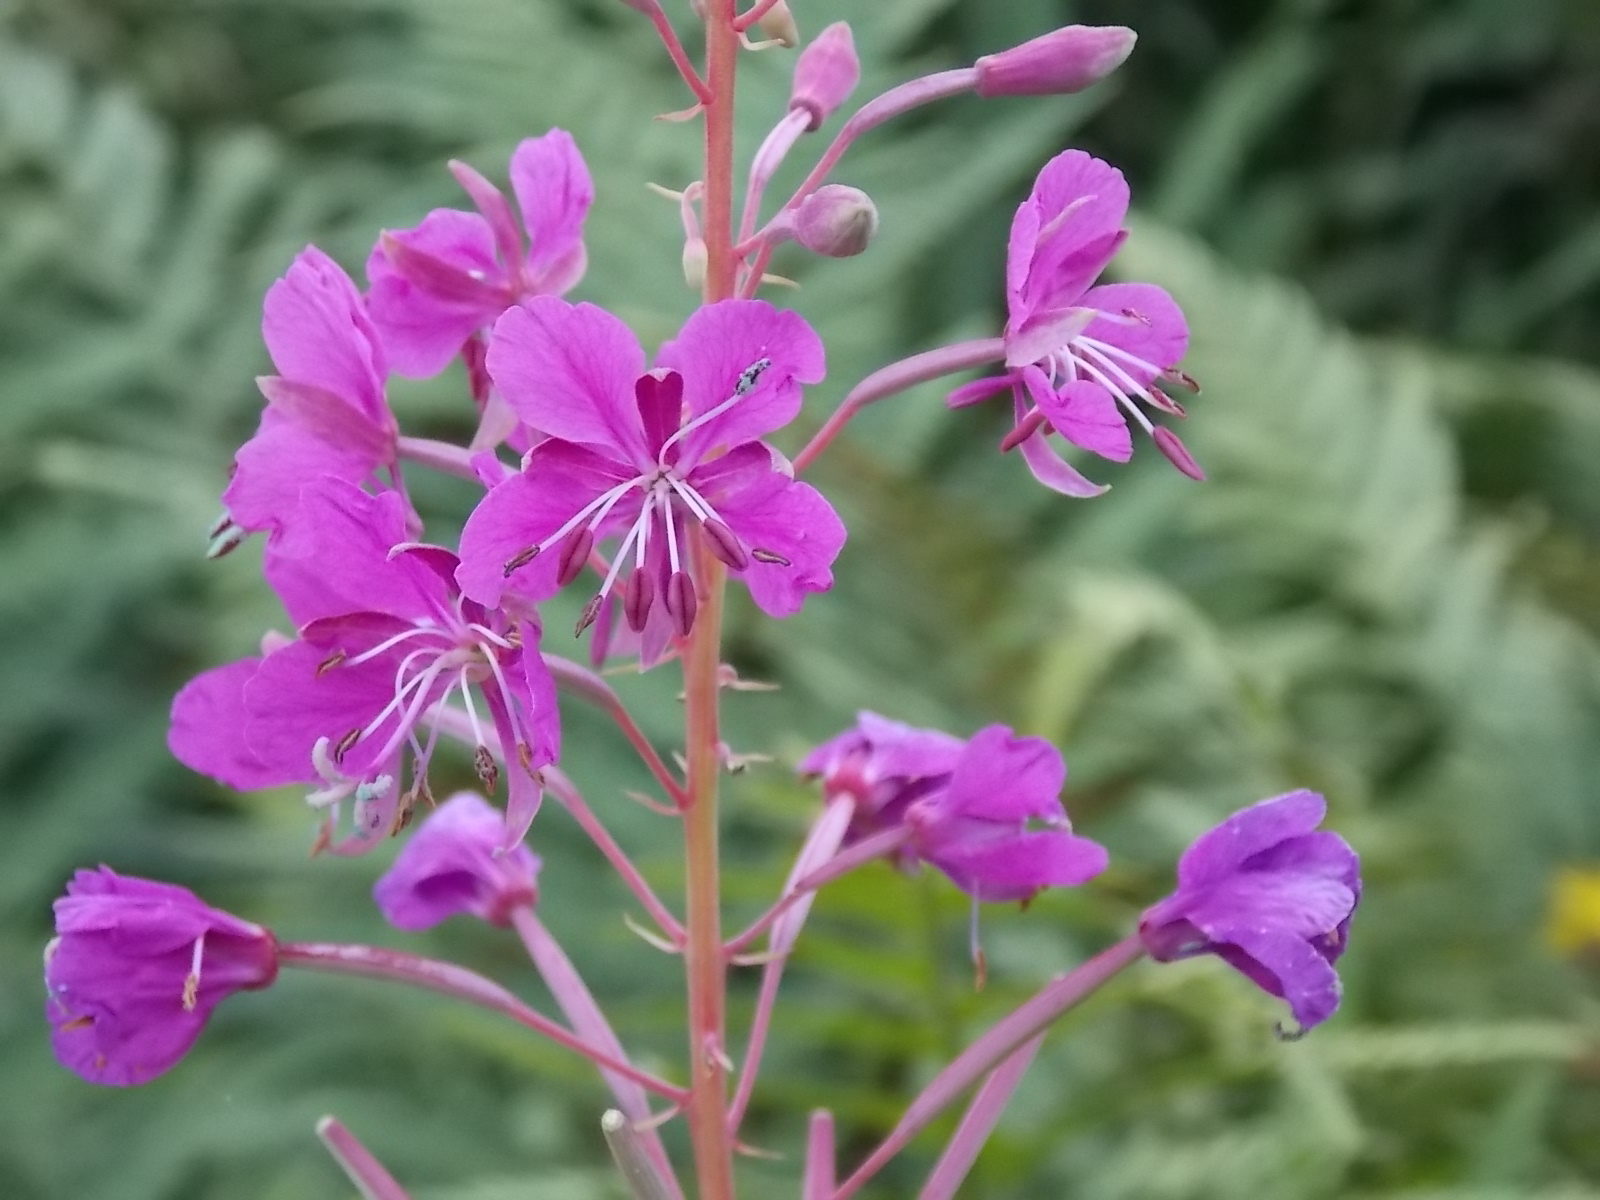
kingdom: Plantae
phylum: Tracheophyta
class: Magnoliopsida
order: Myrtales
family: Onagraceae
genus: Chamaenerion
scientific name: Chamaenerion angustifolium
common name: Fireweed
